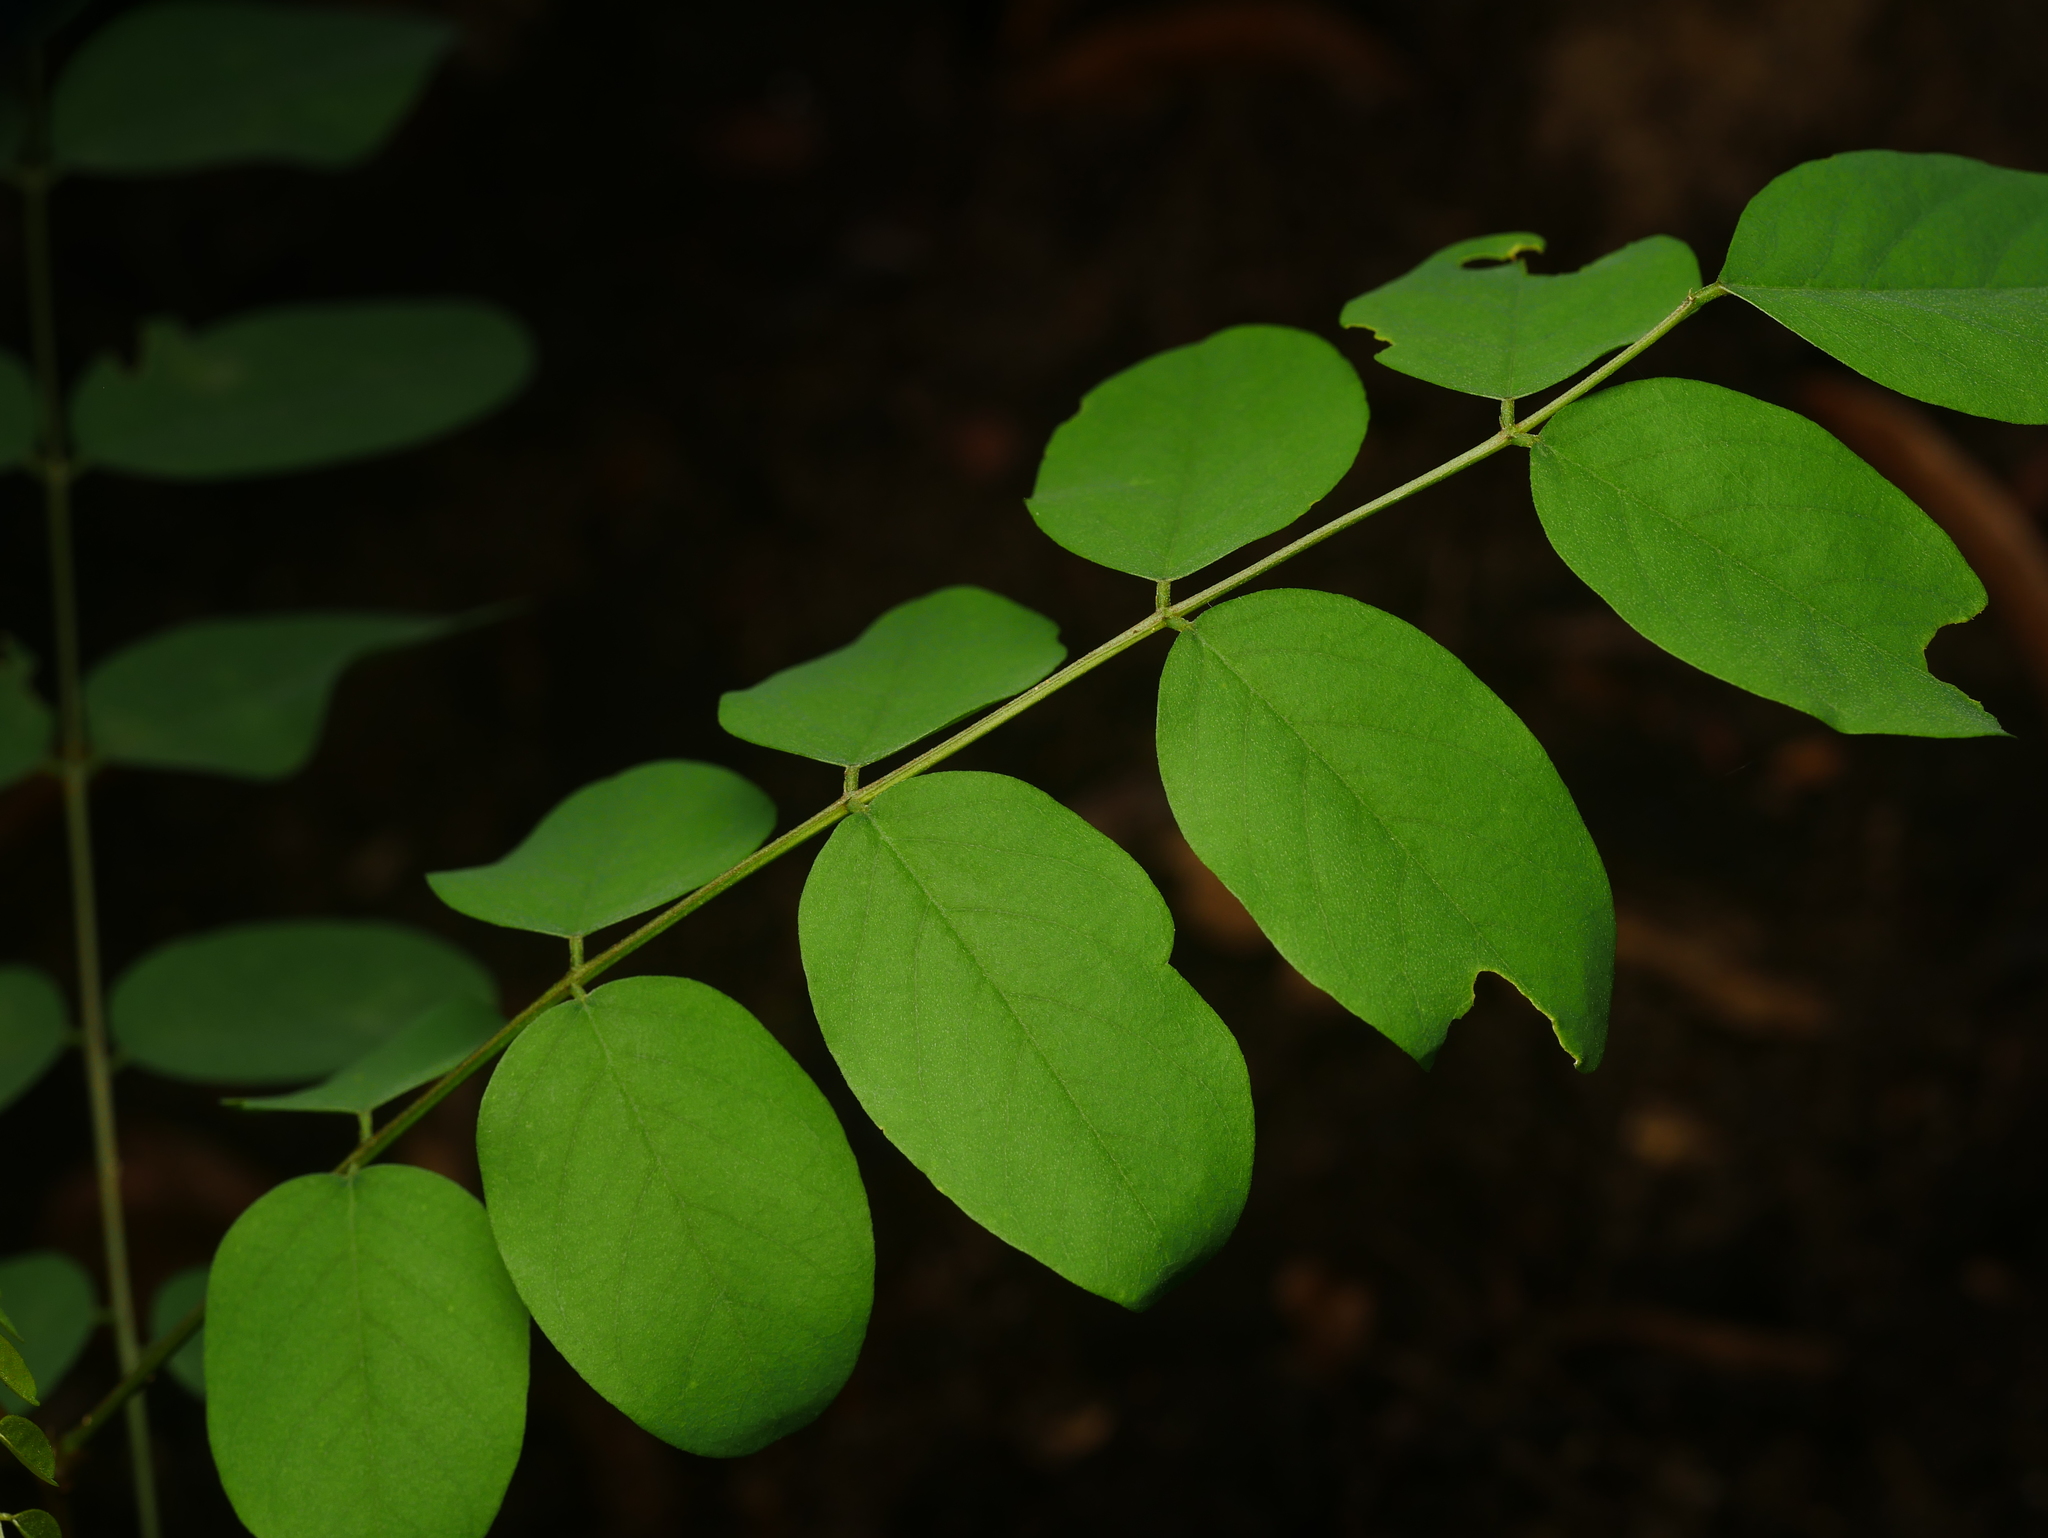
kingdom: Plantae
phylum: Tracheophyta
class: Magnoliopsida
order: Fabales
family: Fabaceae
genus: Robinia
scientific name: Robinia pseudoacacia
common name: Black locust
